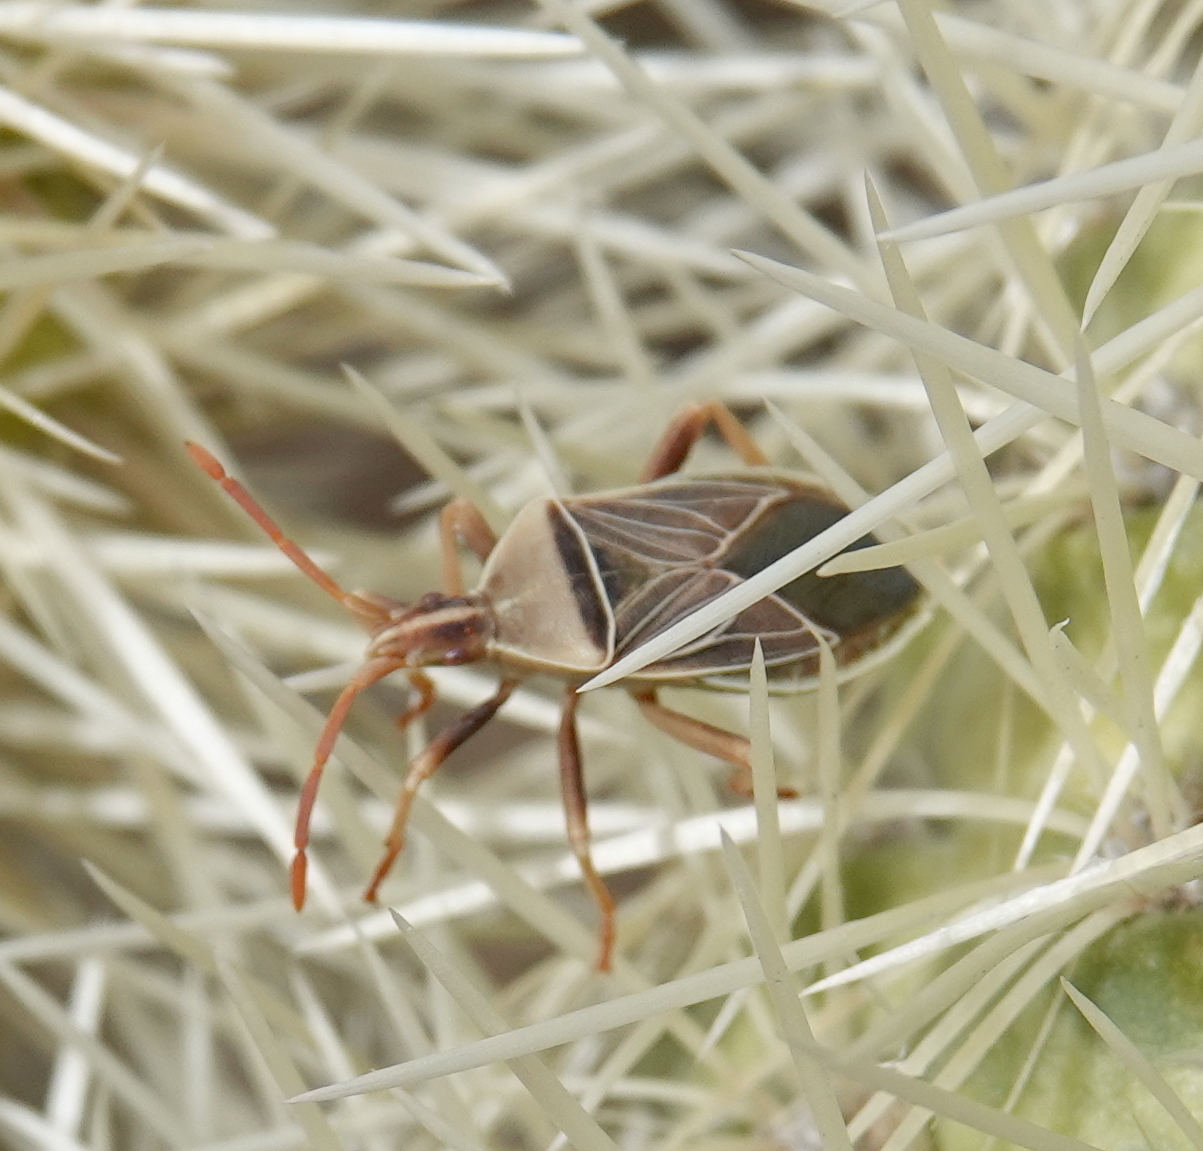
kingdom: Animalia
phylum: Arthropoda
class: Insecta
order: Hemiptera
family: Coreidae
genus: Chelinidea
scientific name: Chelinidea vittiger
